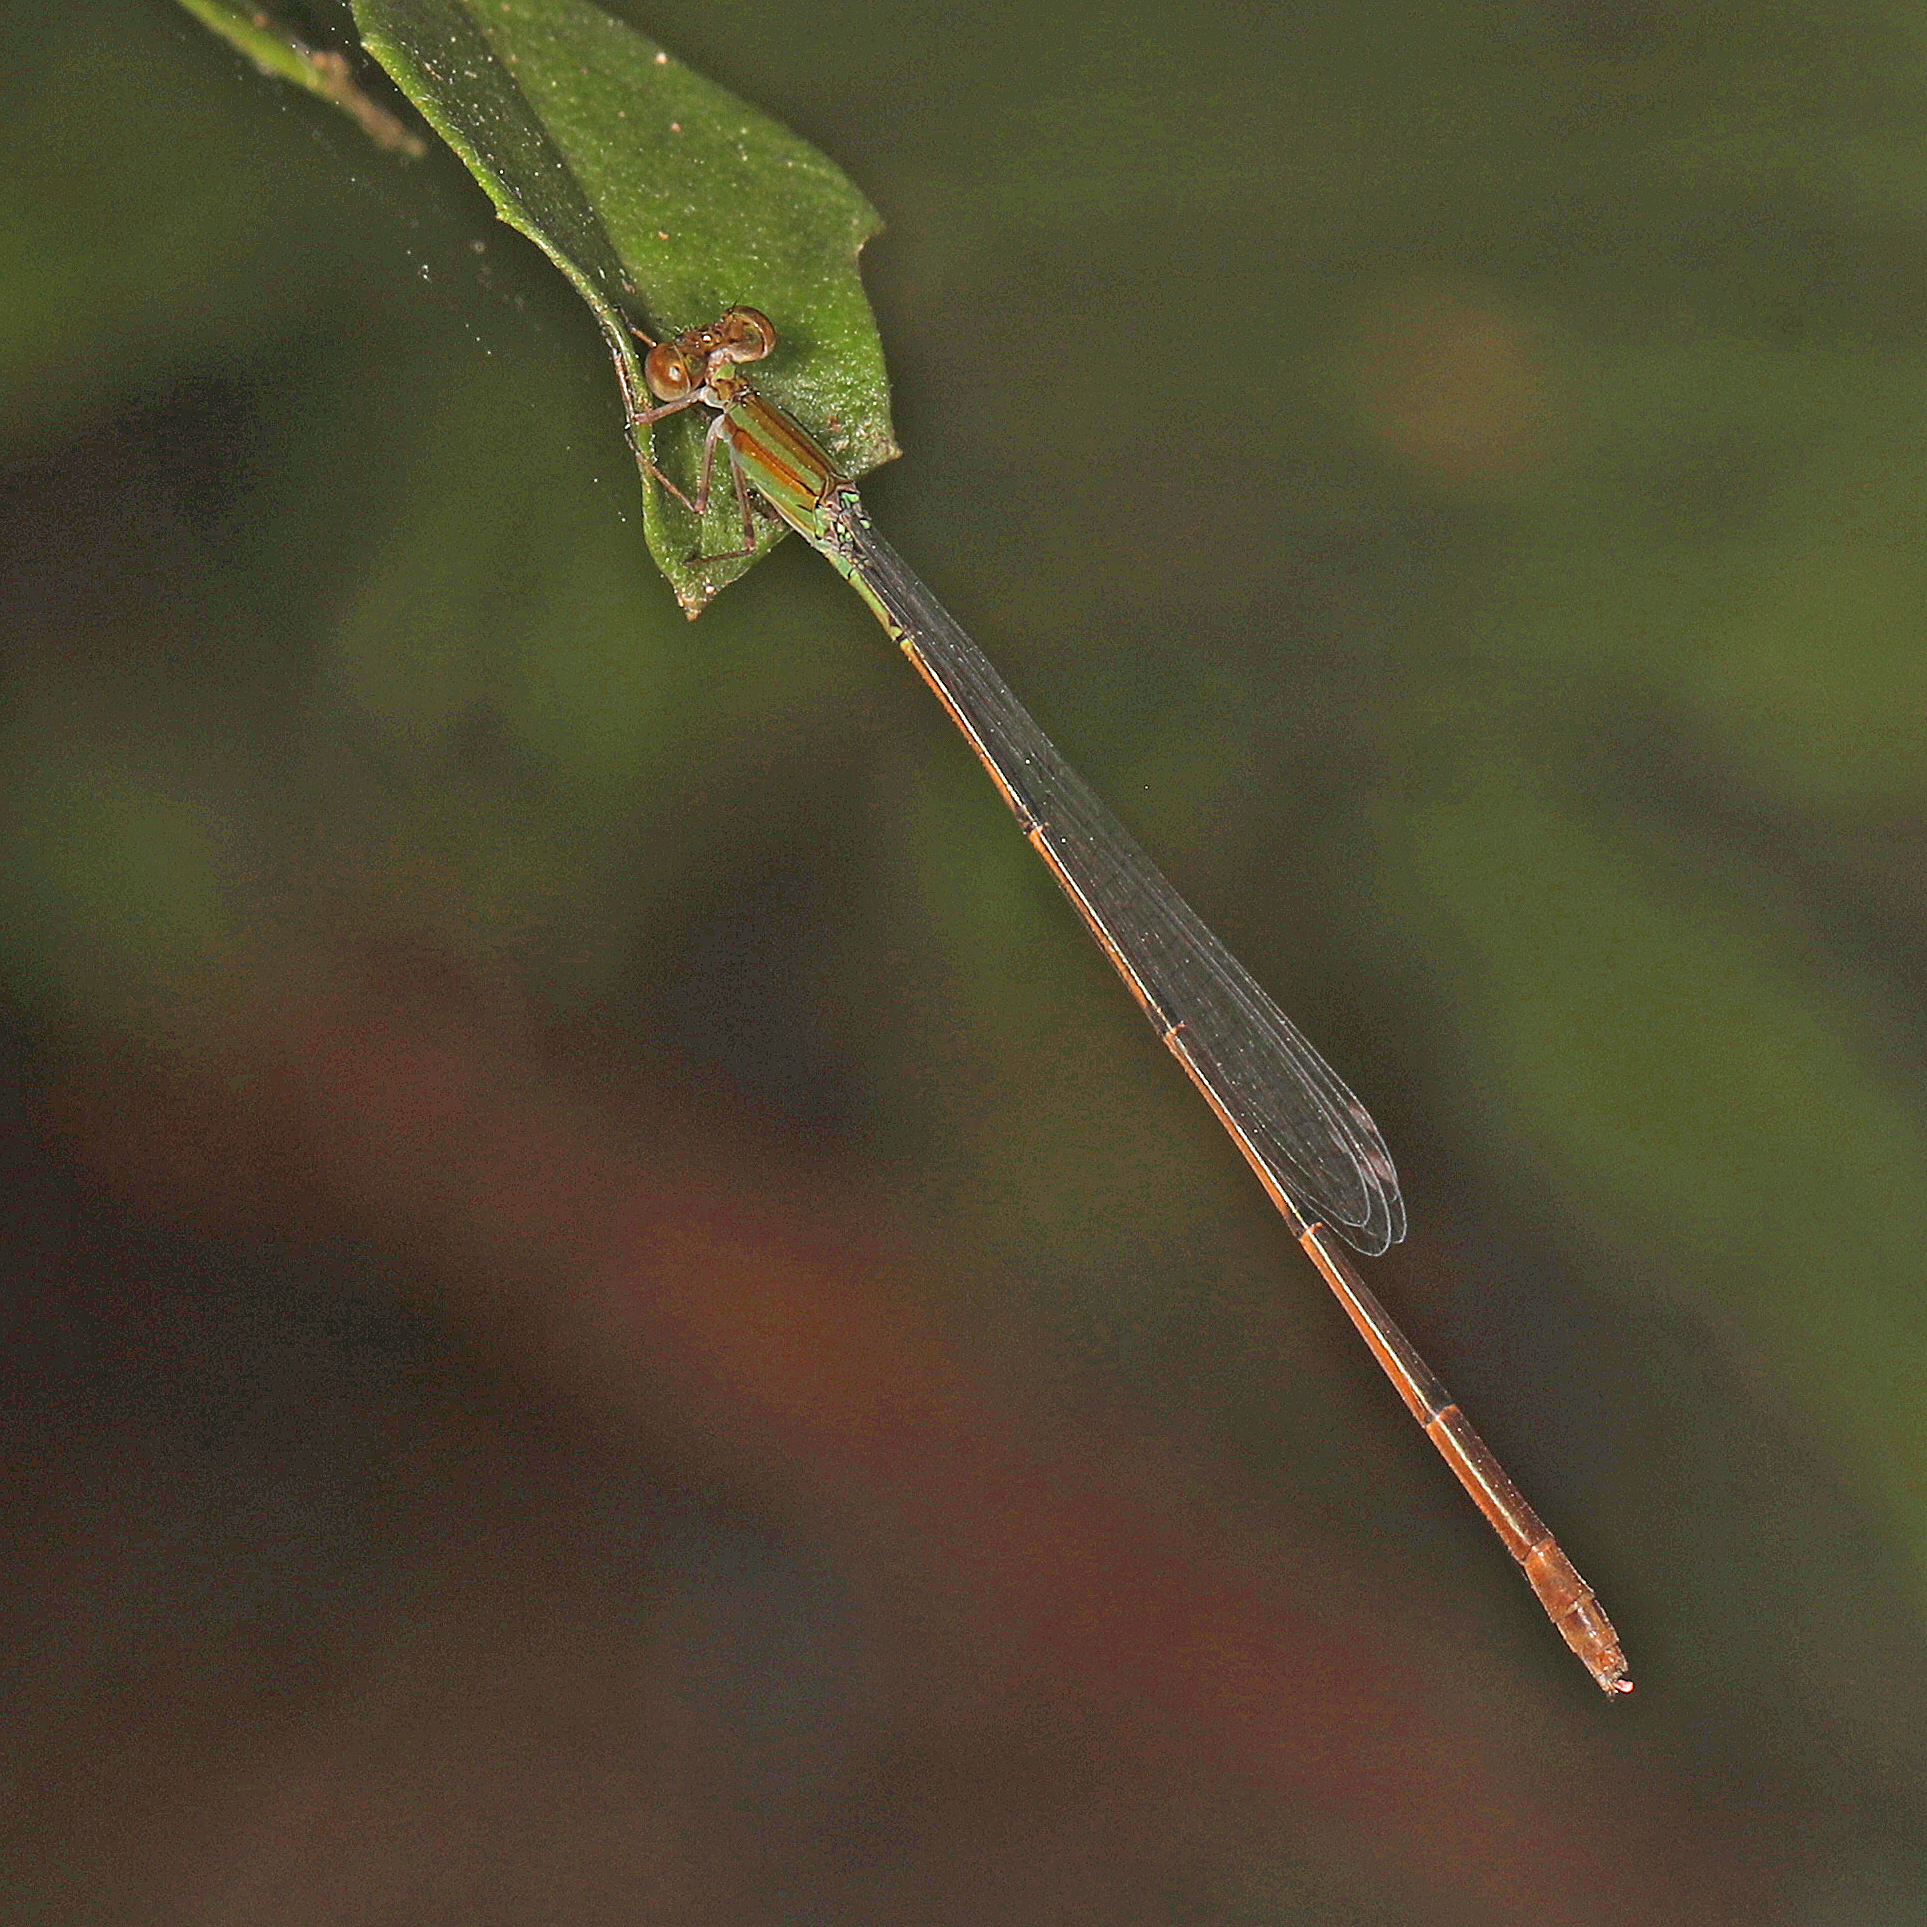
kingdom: Animalia
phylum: Arthropoda
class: Insecta
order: Odonata
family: Coenagrionidae
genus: Leptobasis
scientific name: Leptobasis lucifer
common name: Lucifer swampdamsel
